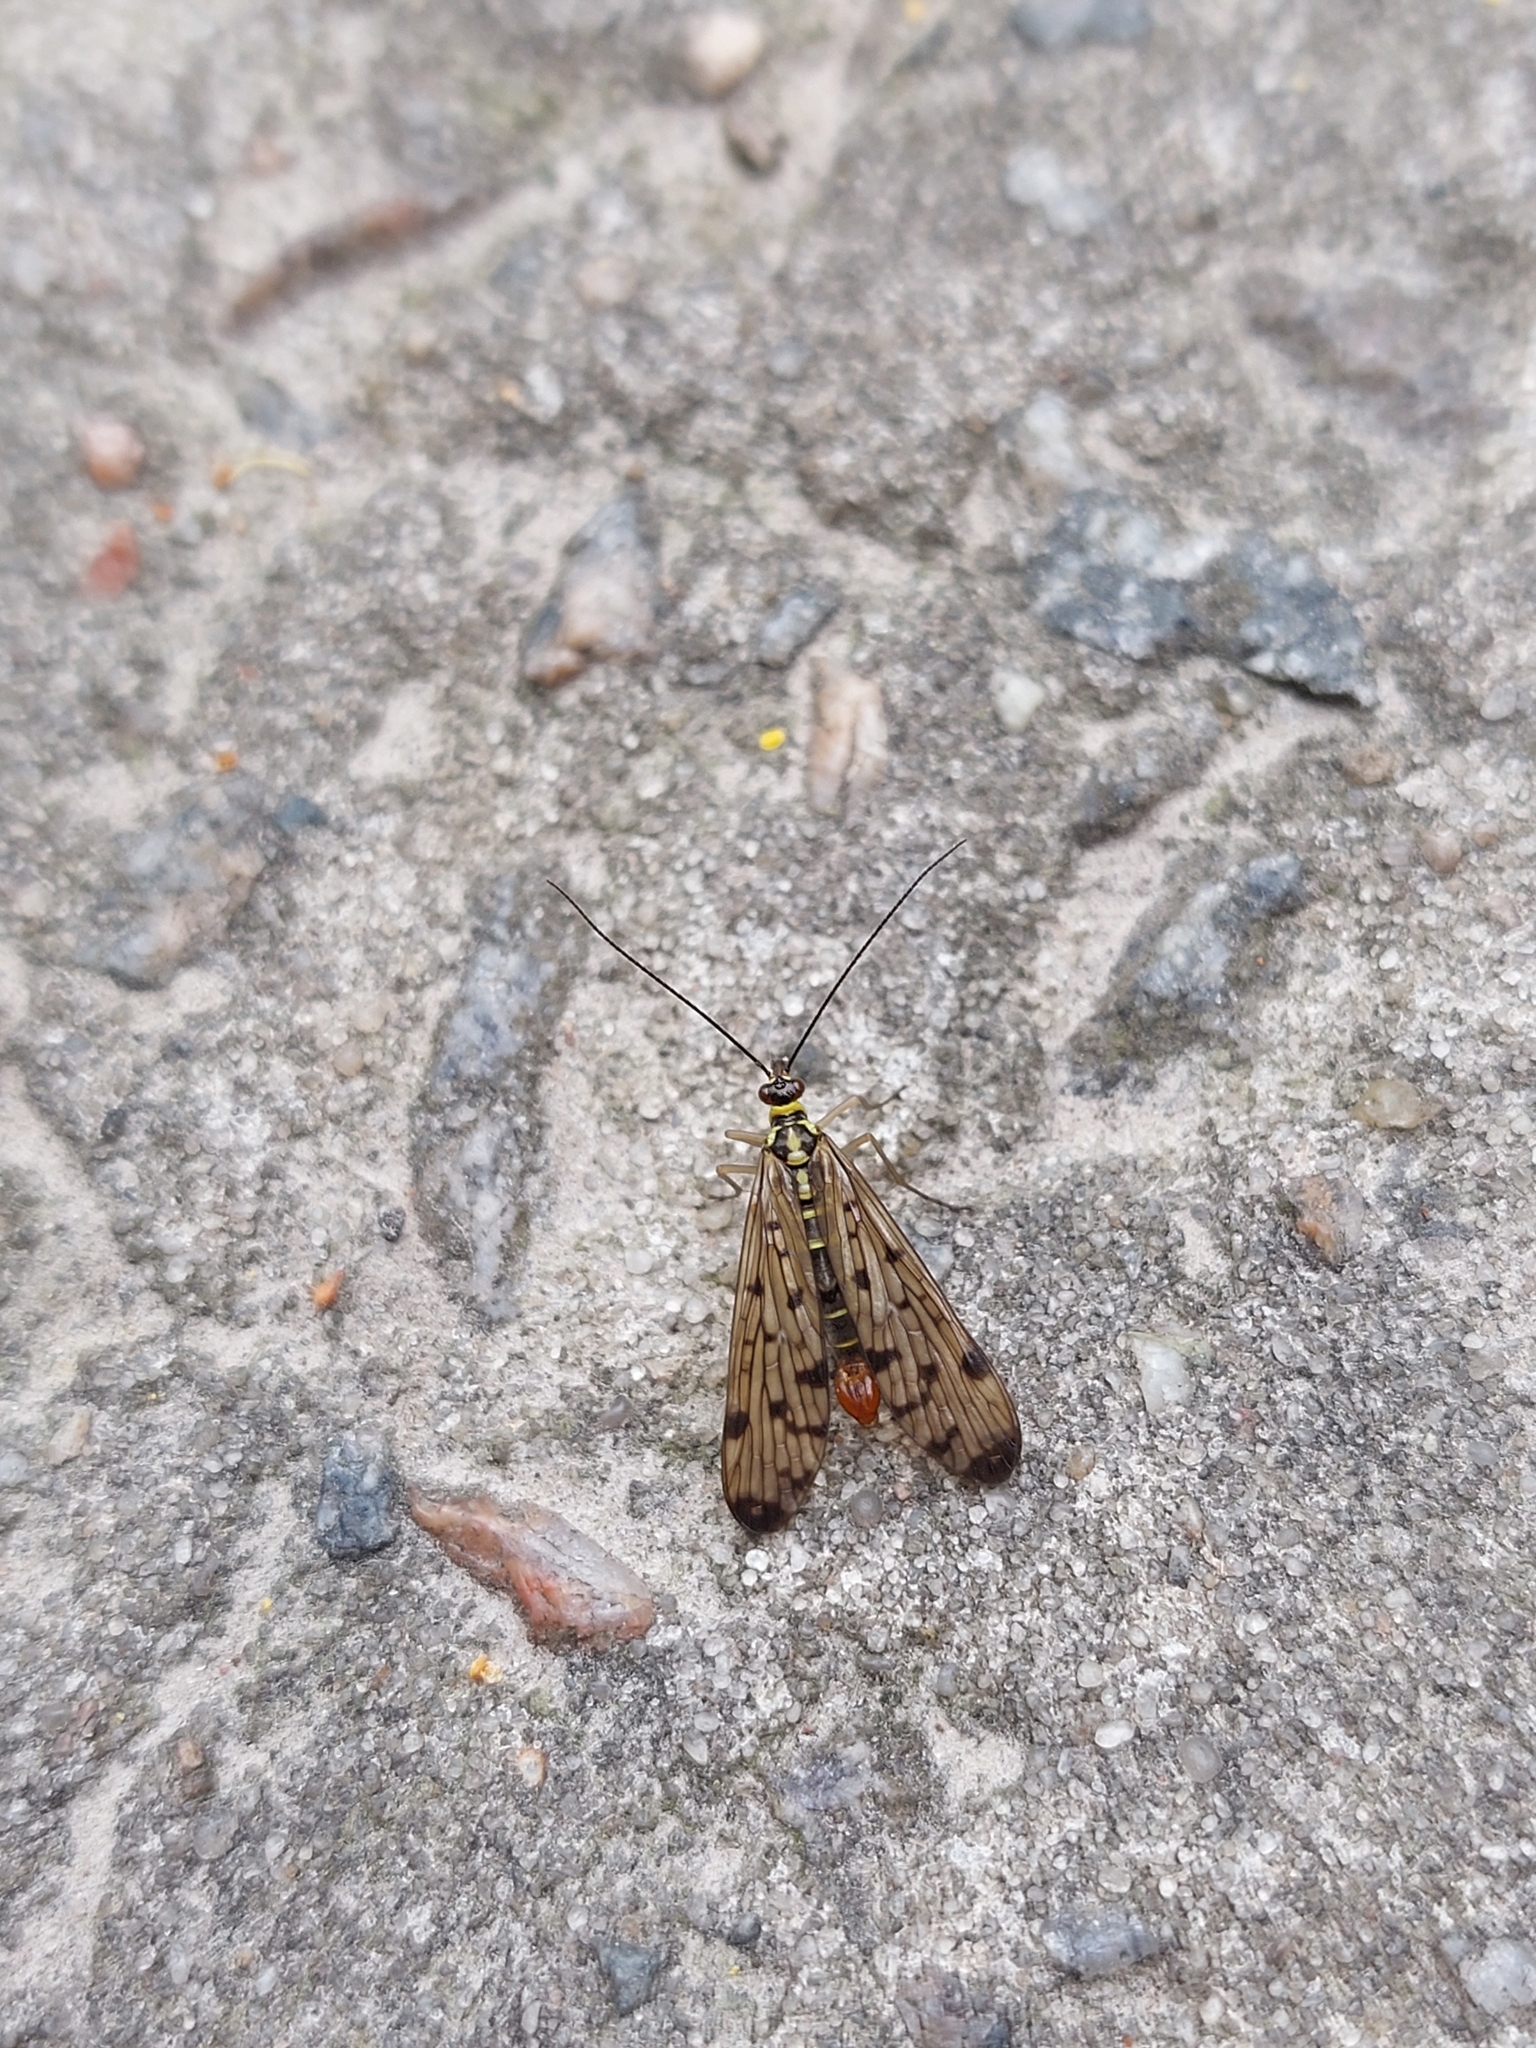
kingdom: Animalia
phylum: Arthropoda
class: Insecta
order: Mecoptera
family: Panorpidae
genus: Panorpa
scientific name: Panorpa germanica
